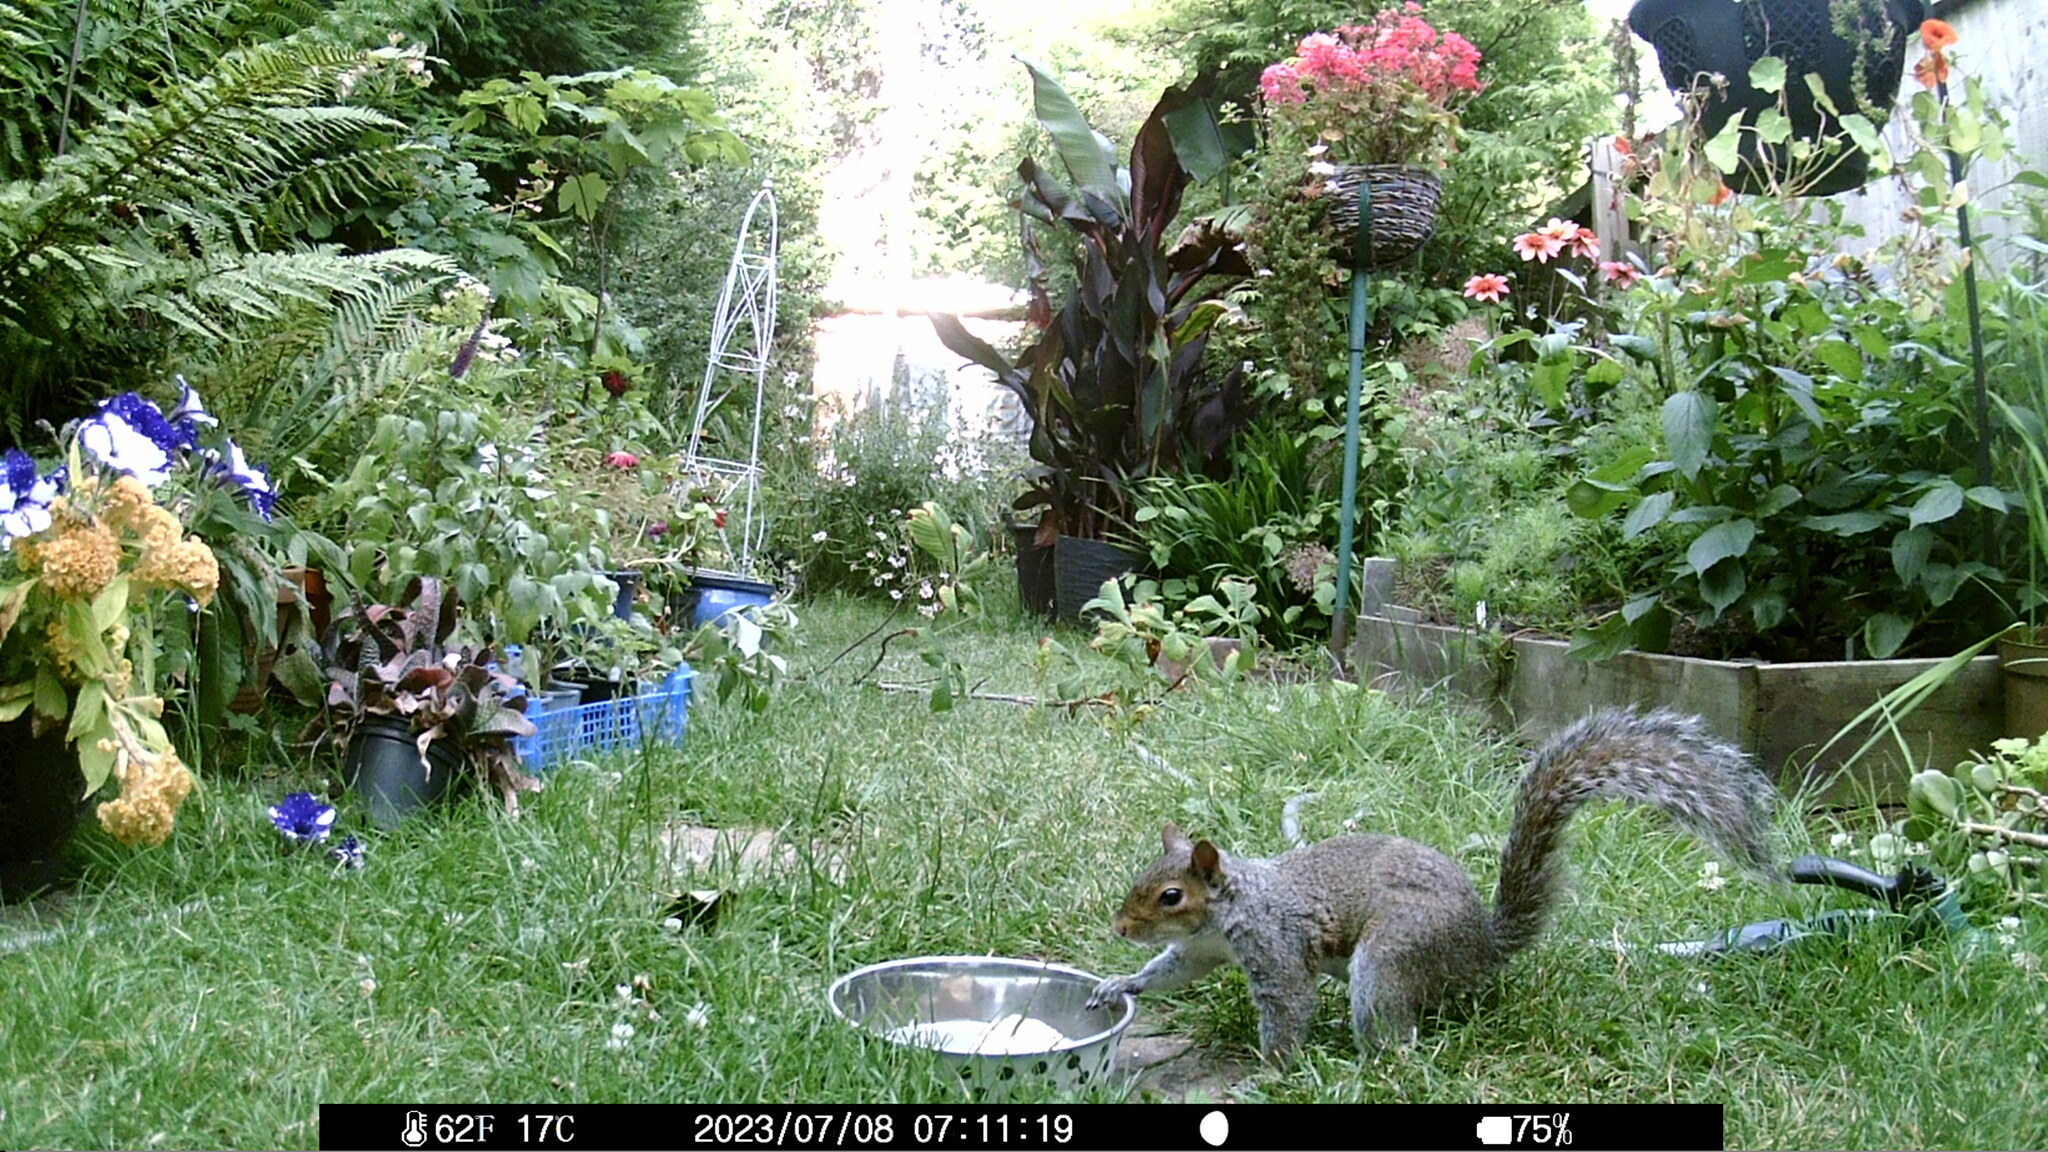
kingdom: Animalia
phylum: Chordata
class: Mammalia
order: Rodentia
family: Sciuridae
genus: Sciurus
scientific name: Sciurus carolinensis
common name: Eastern gray squirrel
